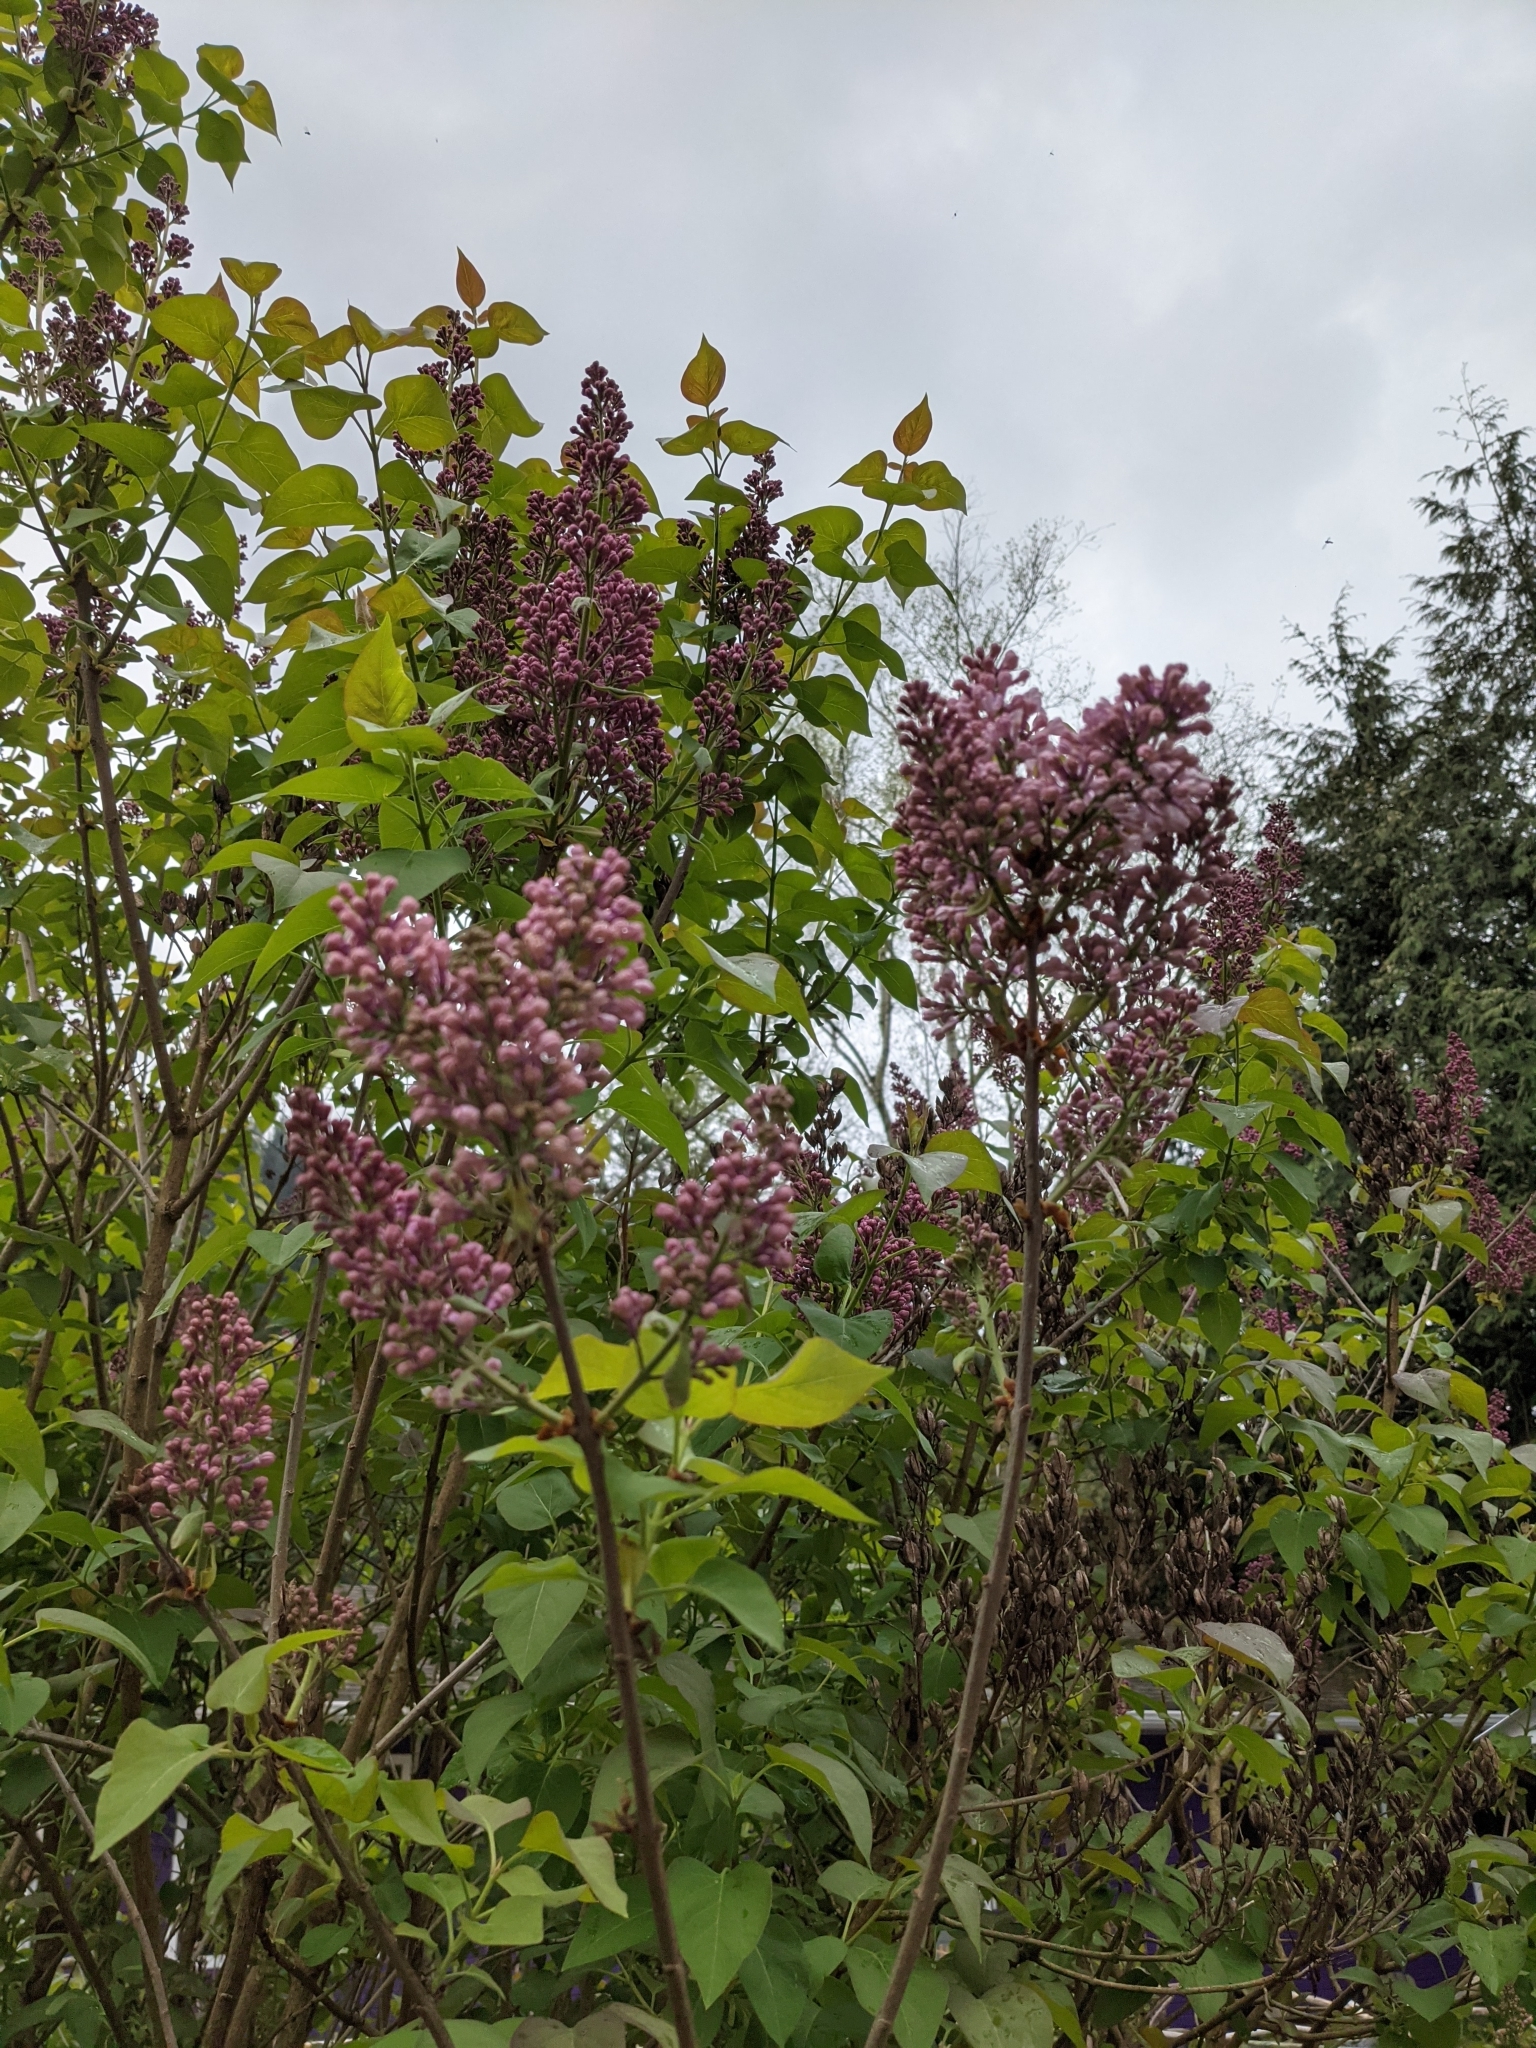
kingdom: Plantae
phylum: Tracheophyta
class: Magnoliopsida
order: Lamiales
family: Oleaceae
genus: Syringa
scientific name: Syringa vulgaris
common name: Common lilac
